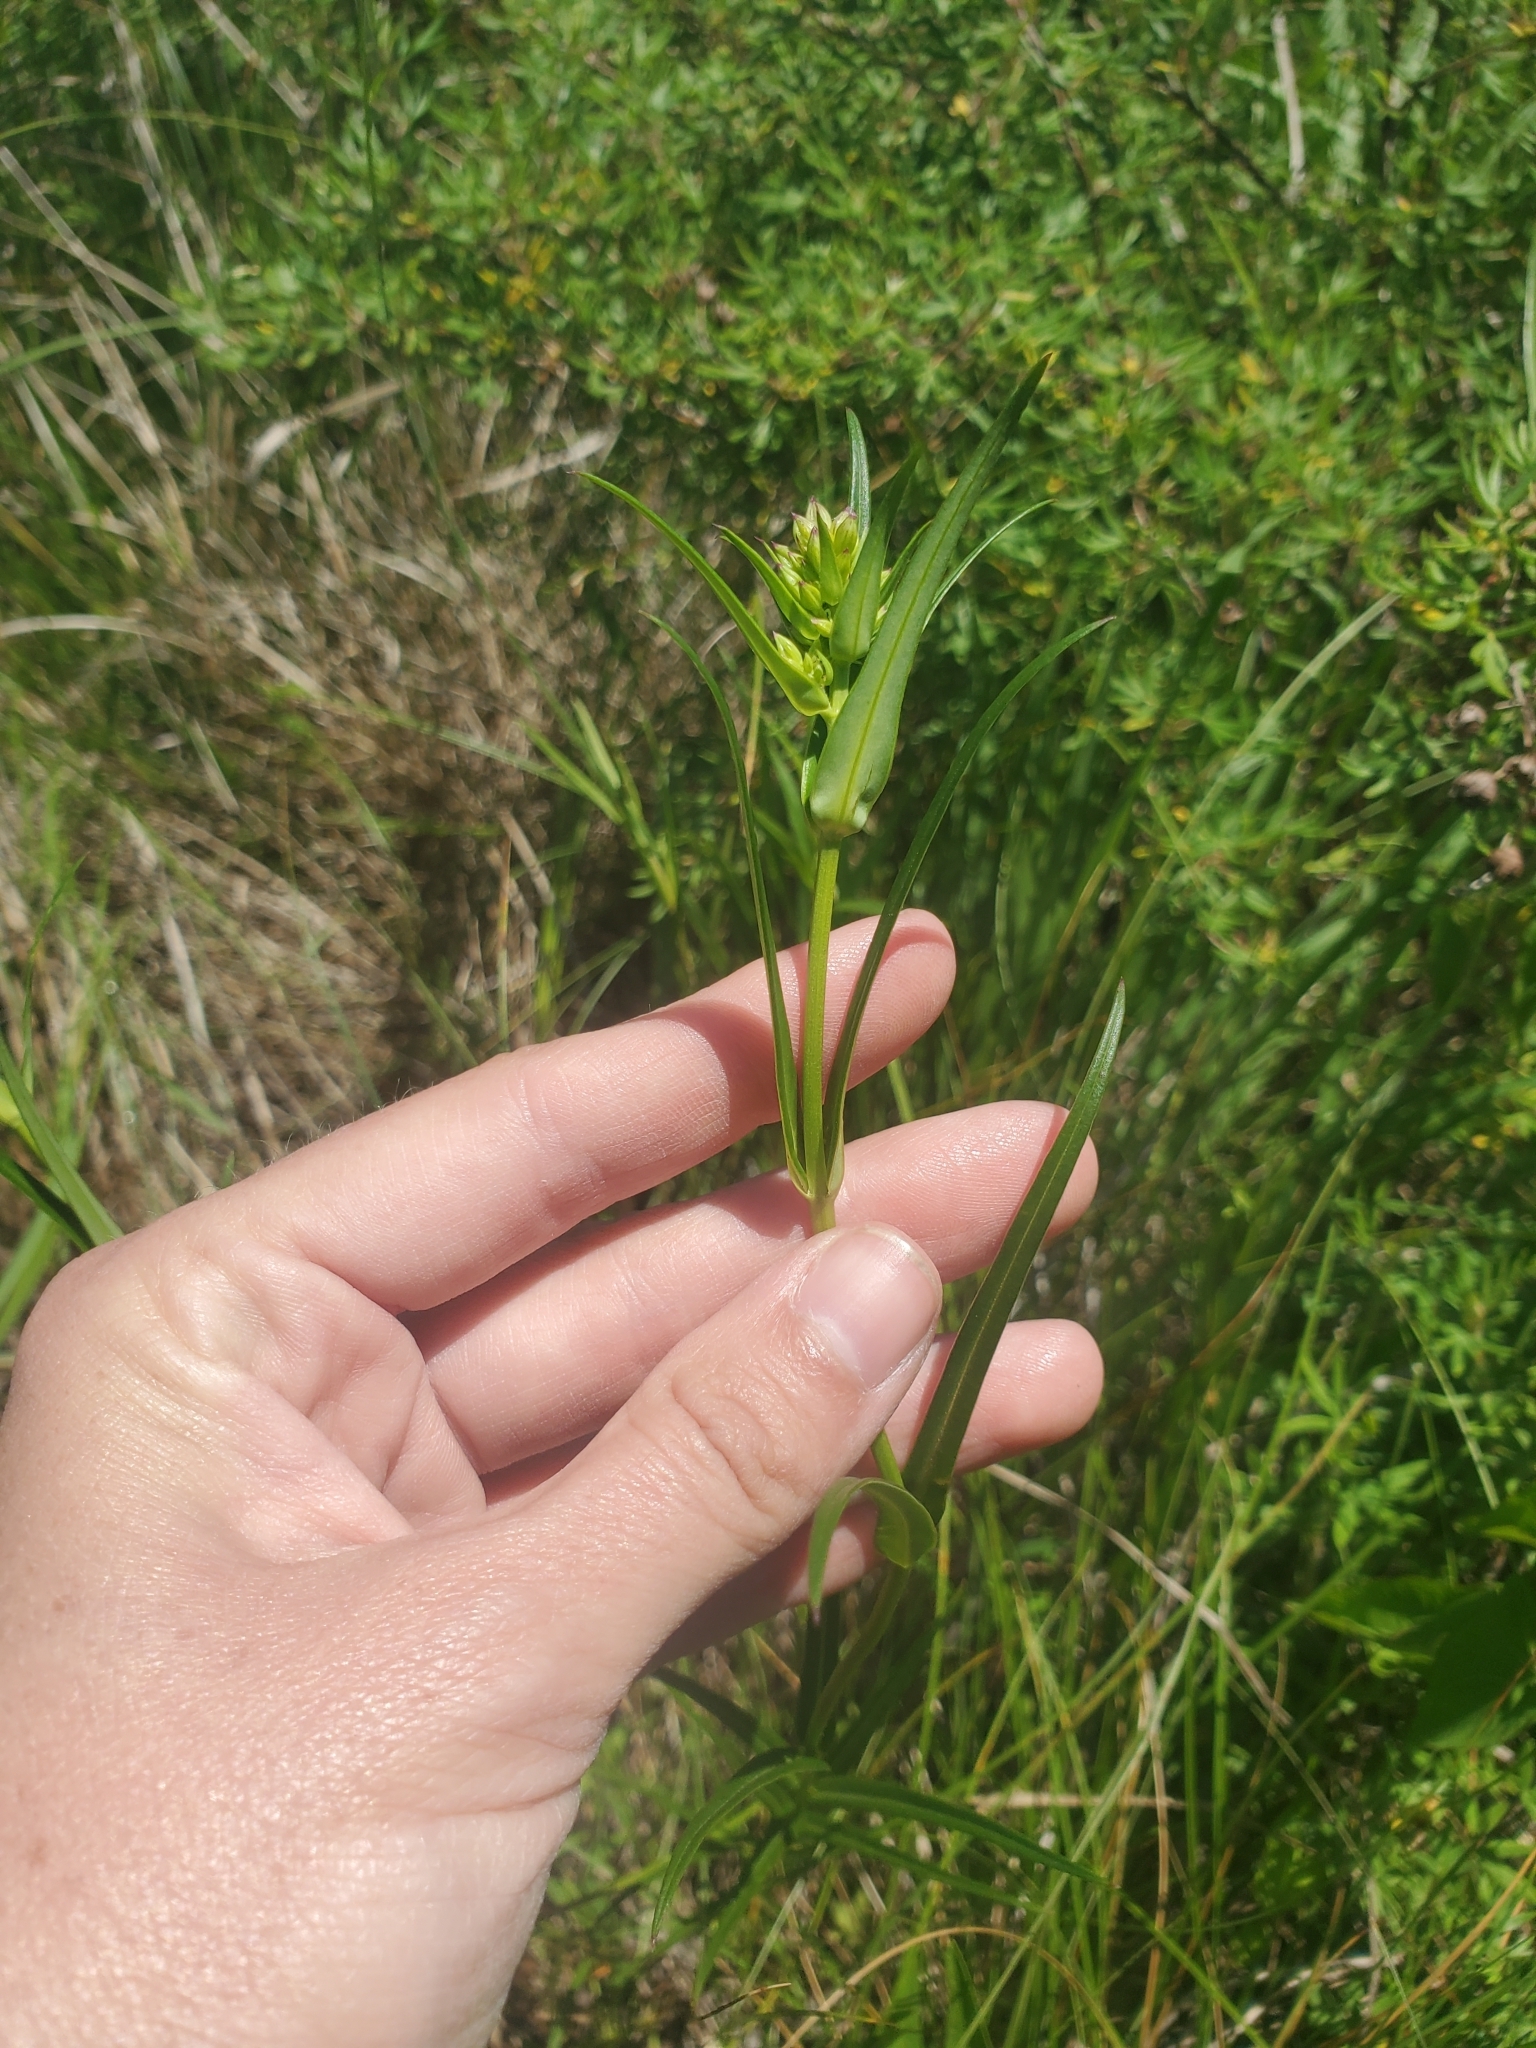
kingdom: Plantae
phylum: Tracheophyta
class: Magnoliopsida
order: Ericales
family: Polemoniaceae
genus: Phlox
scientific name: Phlox glaberrima
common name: Smooth phlox
